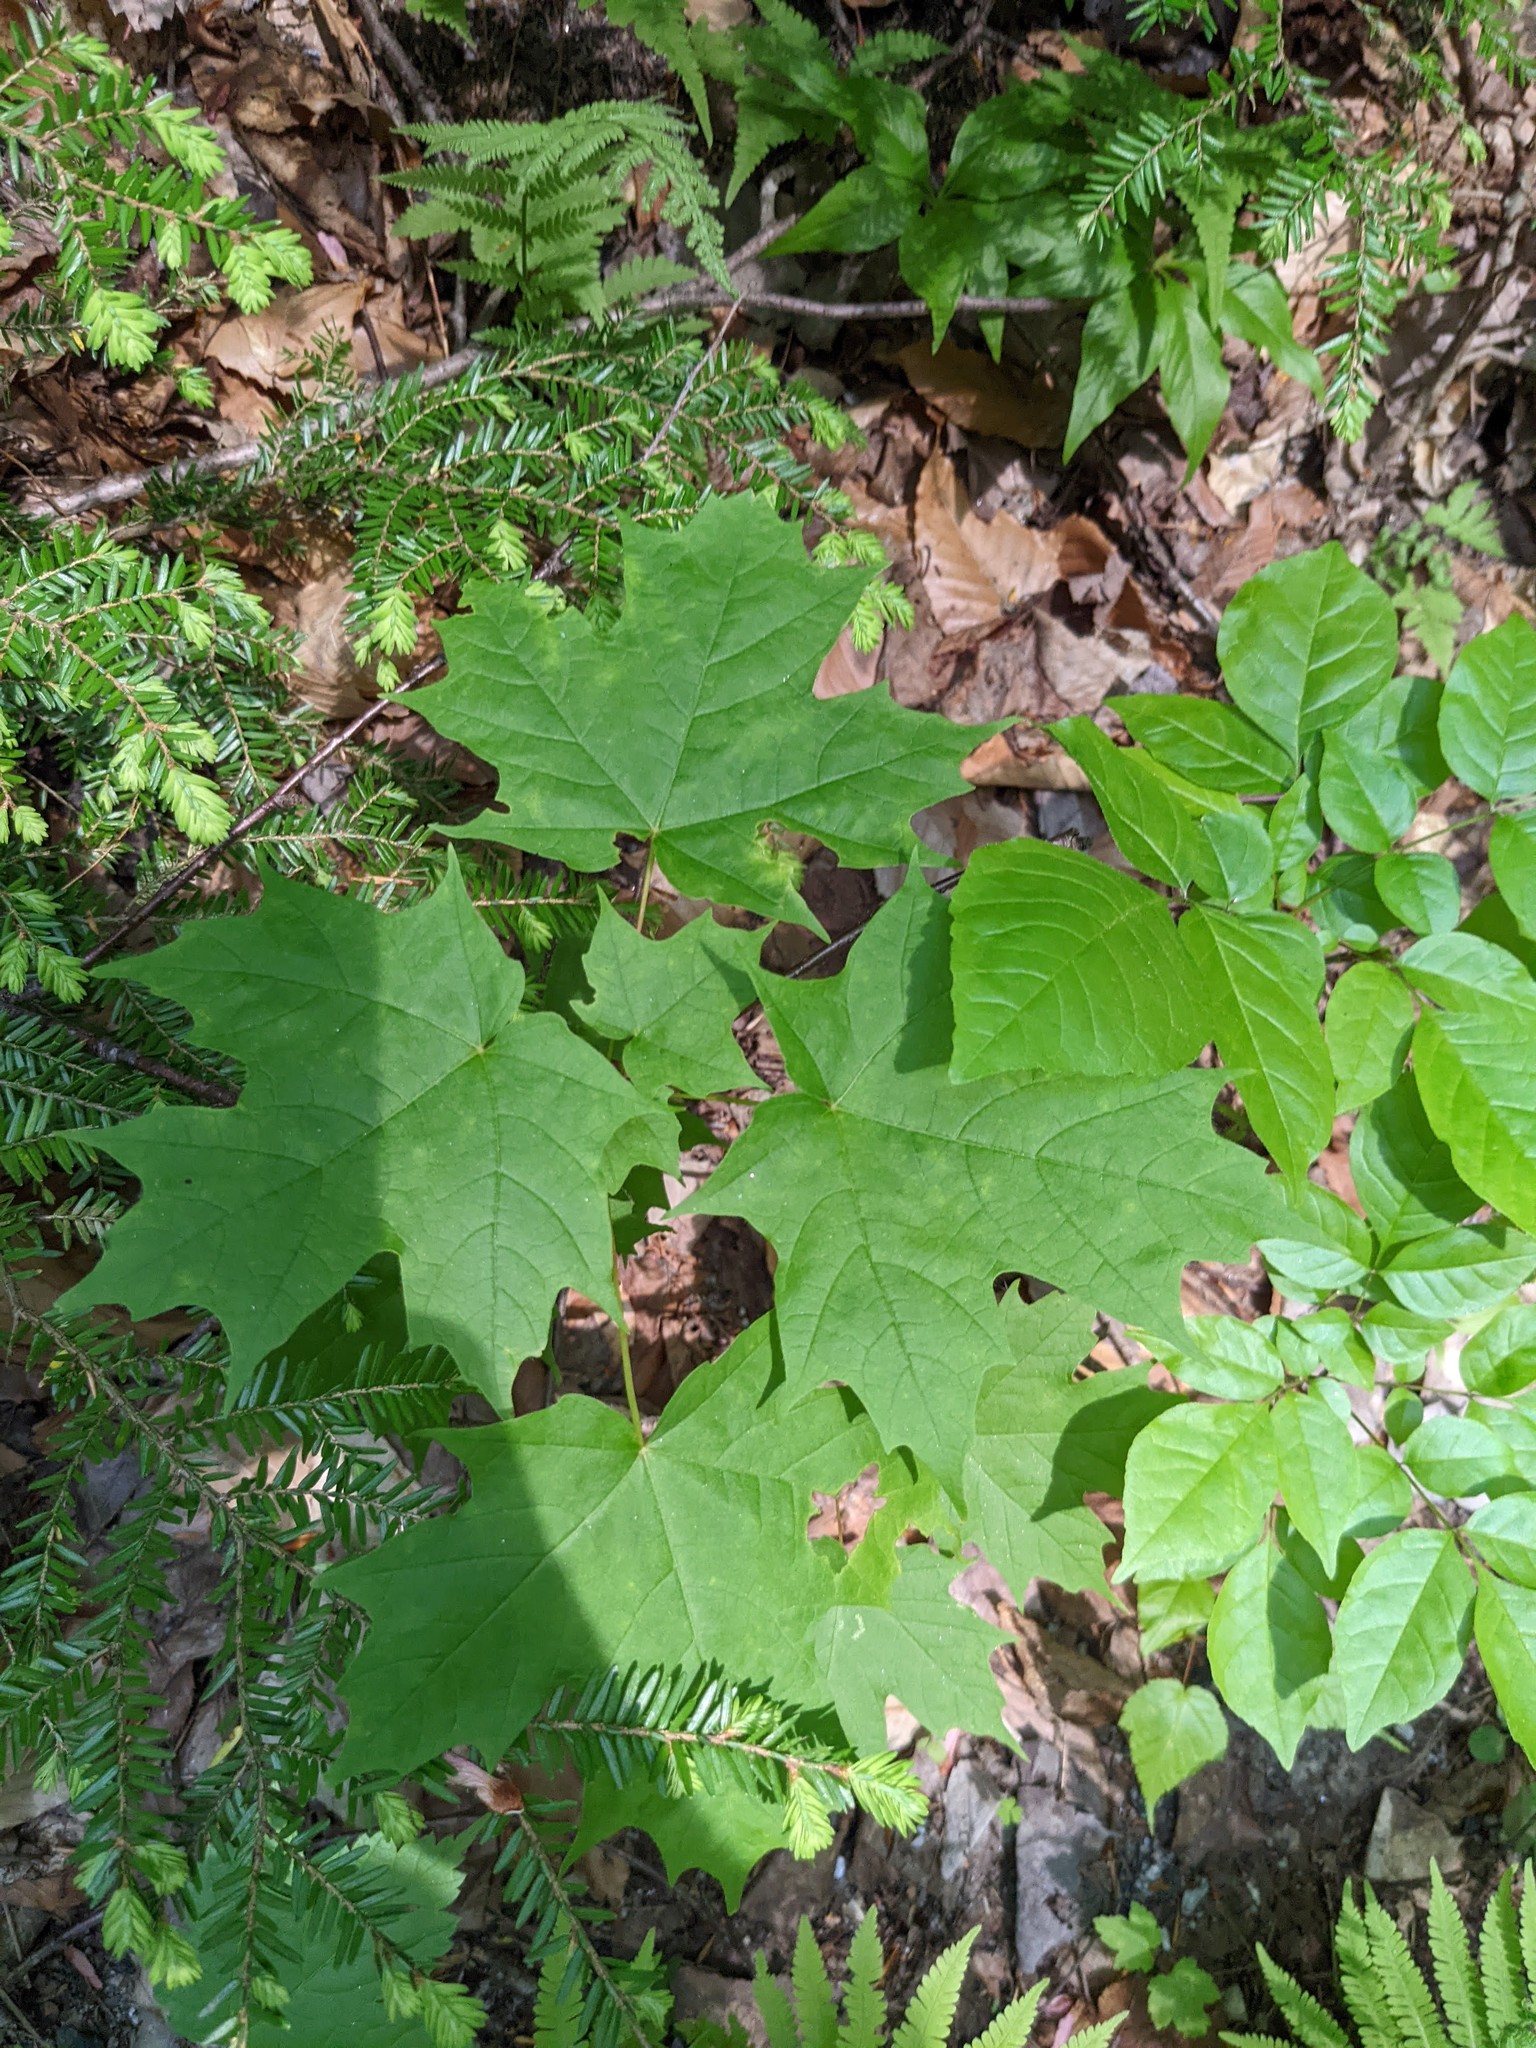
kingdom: Plantae
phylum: Tracheophyta
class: Magnoliopsida
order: Sapindales
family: Sapindaceae
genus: Acer
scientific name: Acer saccharum
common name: Sugar maple
